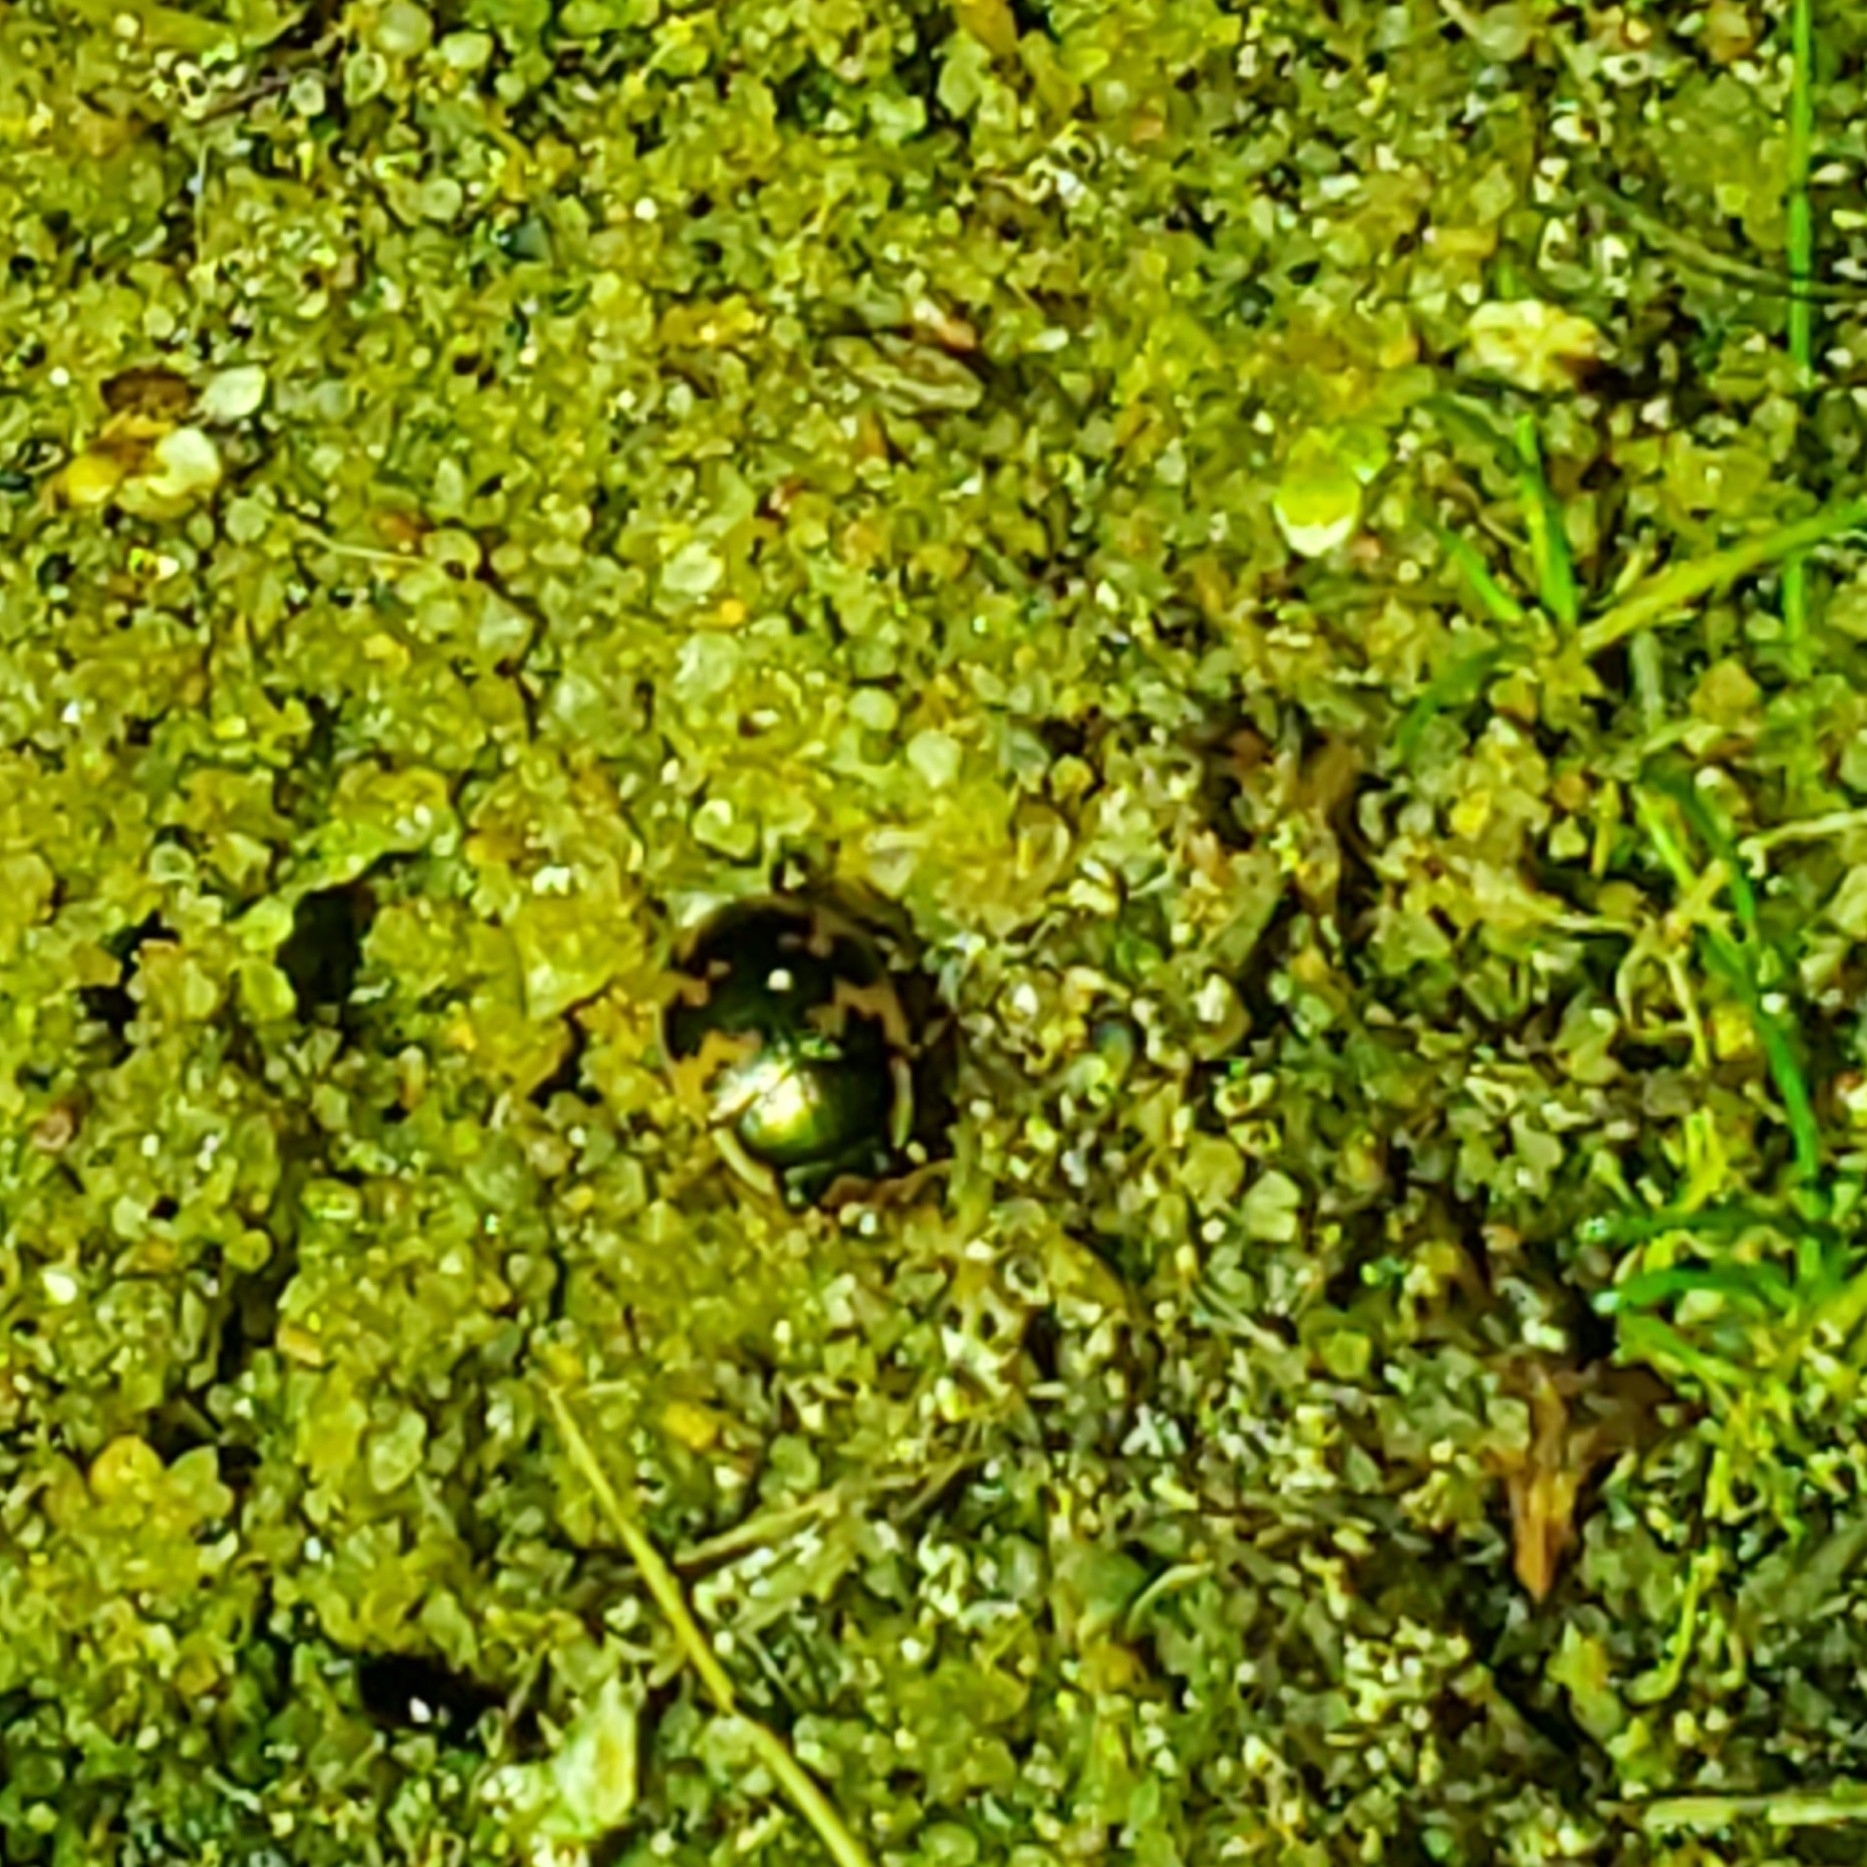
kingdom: Animalia
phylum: Arthropoda
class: Insecta
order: Coleoptera
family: Carabidae
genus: Omophron
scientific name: Omophron americanum
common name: American round sand beetle
